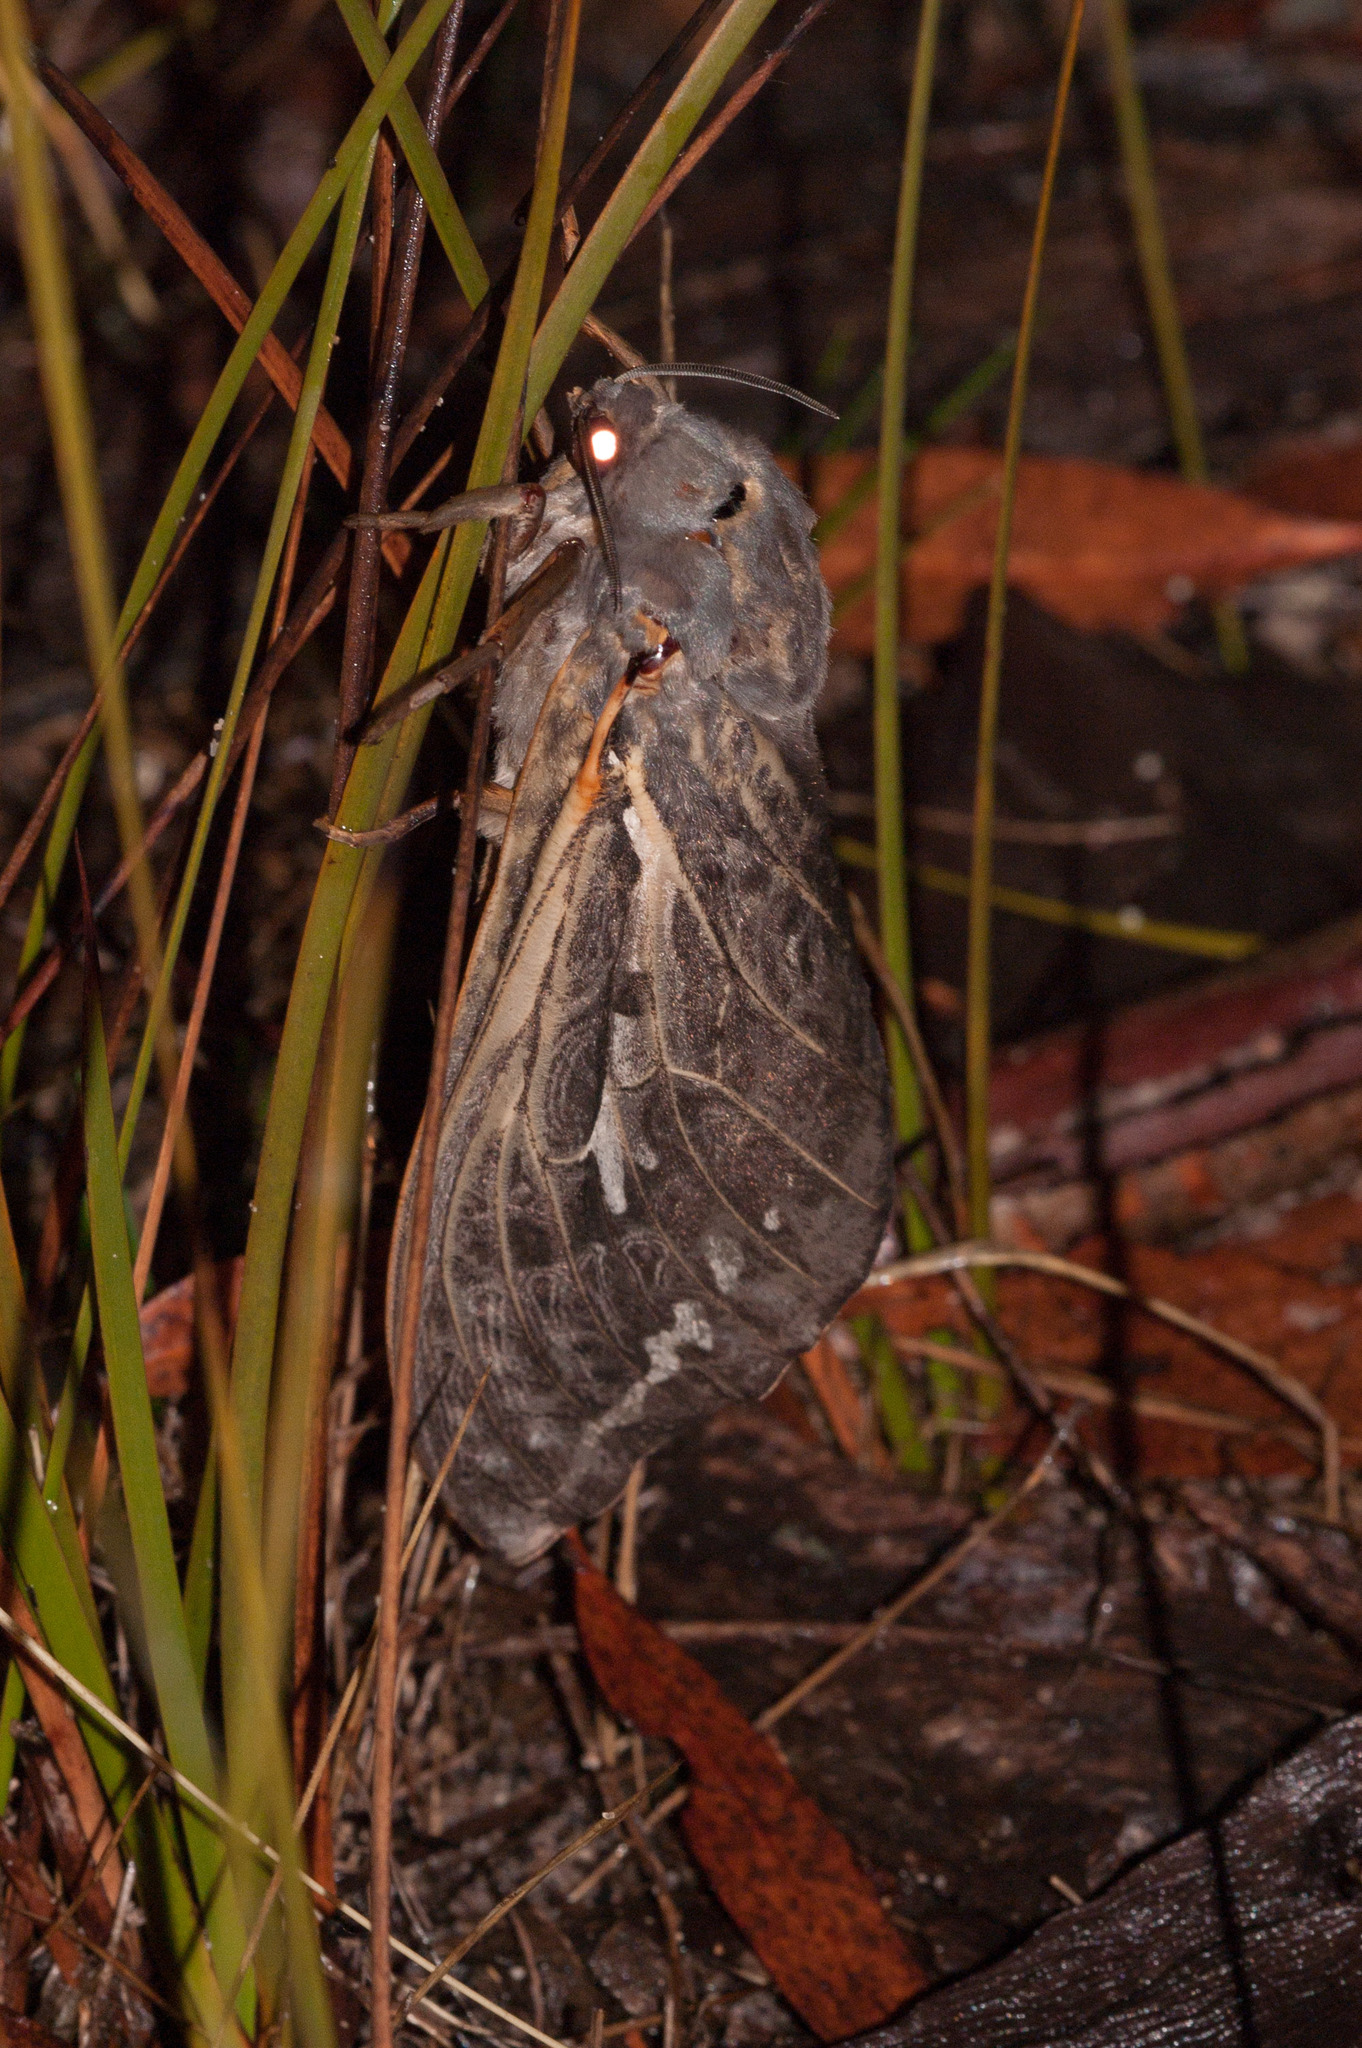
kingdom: Animalia
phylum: Arthropoda
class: Insecta
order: Lepidoptera
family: Hepialidae
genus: Abantiades
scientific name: Abantiades atripalpis
